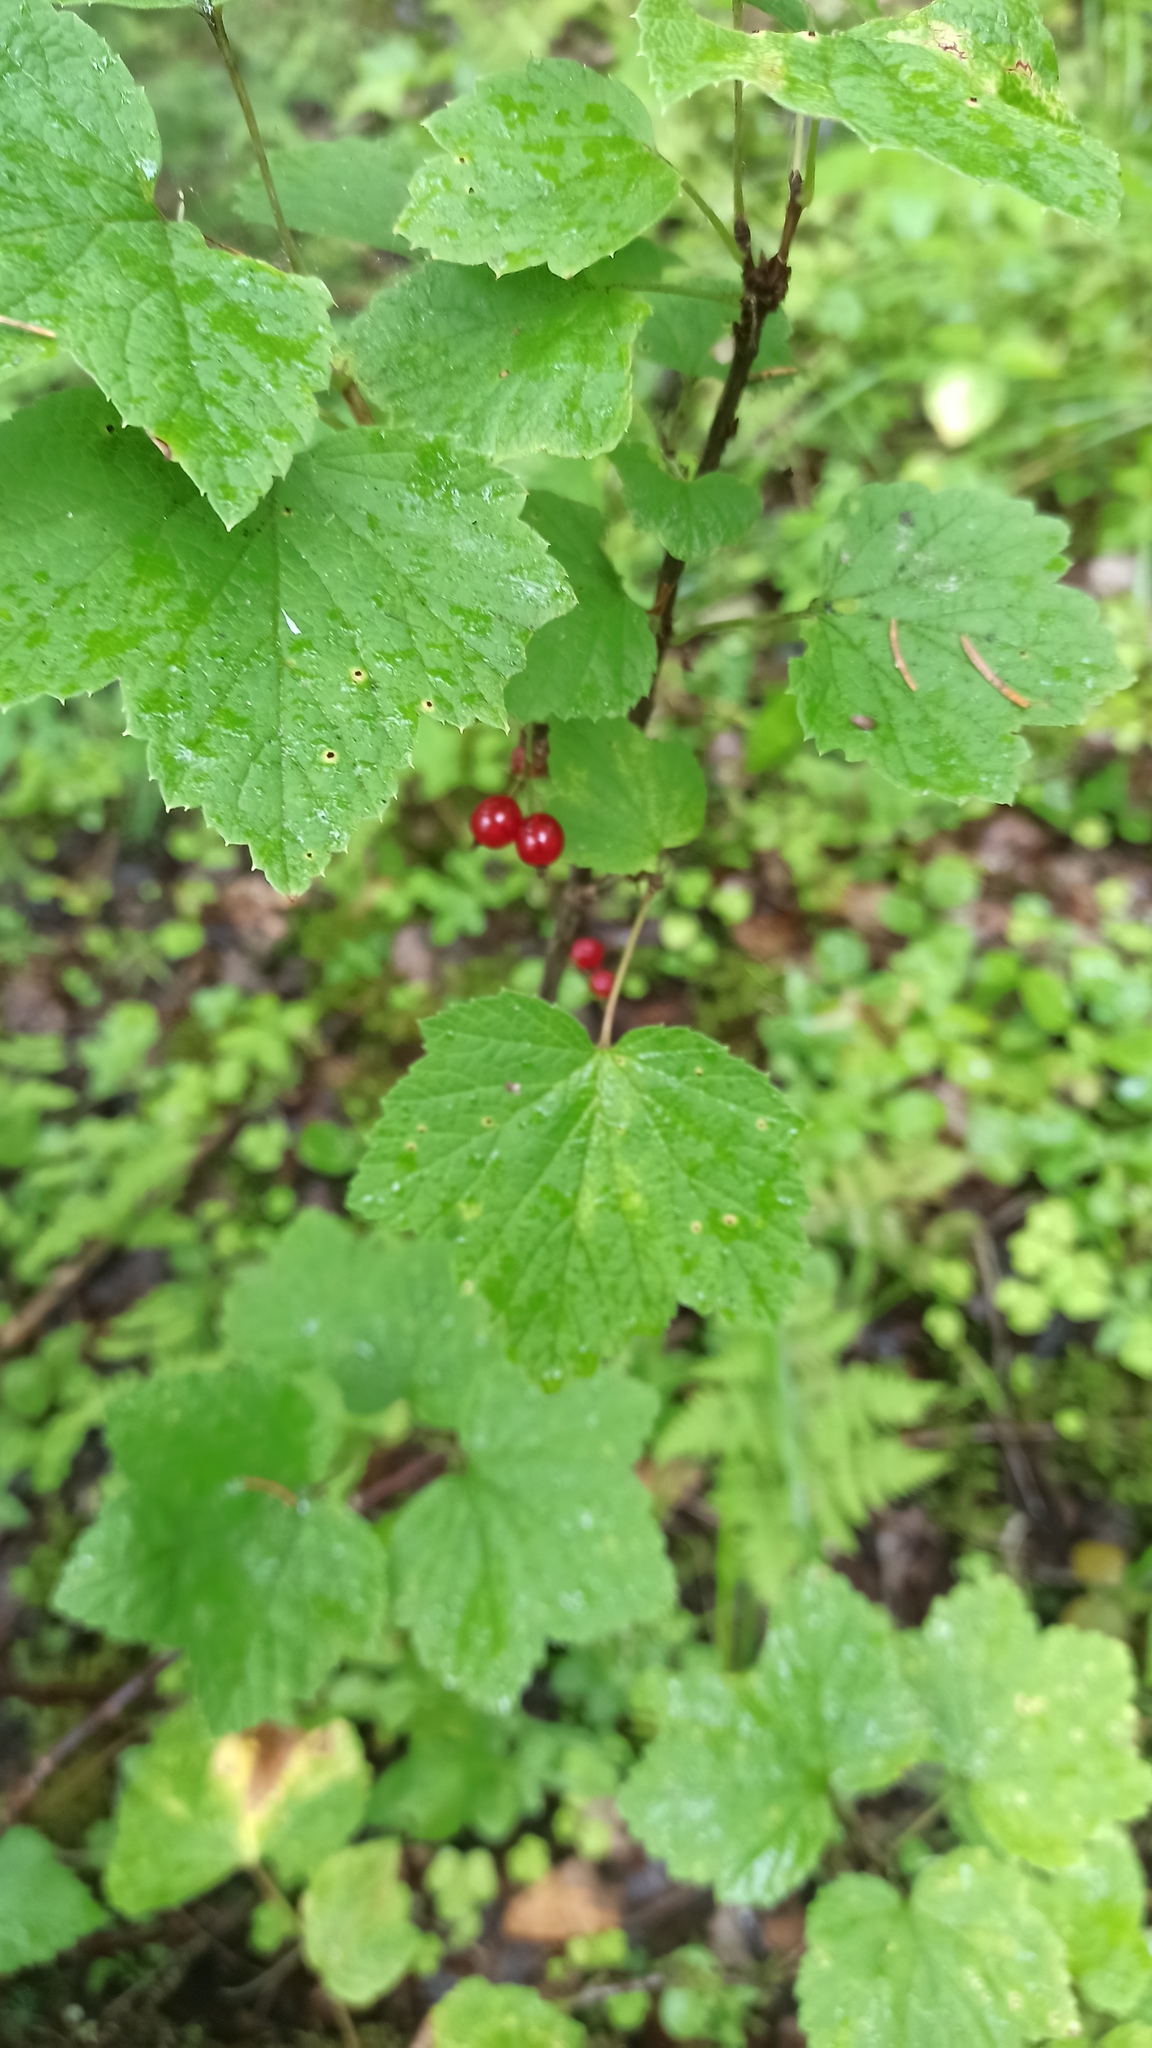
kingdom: Plantae
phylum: Tracheophyta
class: Magnoliopsida
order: Saxifragales
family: Grossulariaceae
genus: Ribes
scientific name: Ribes spicatum
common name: Downy currant
